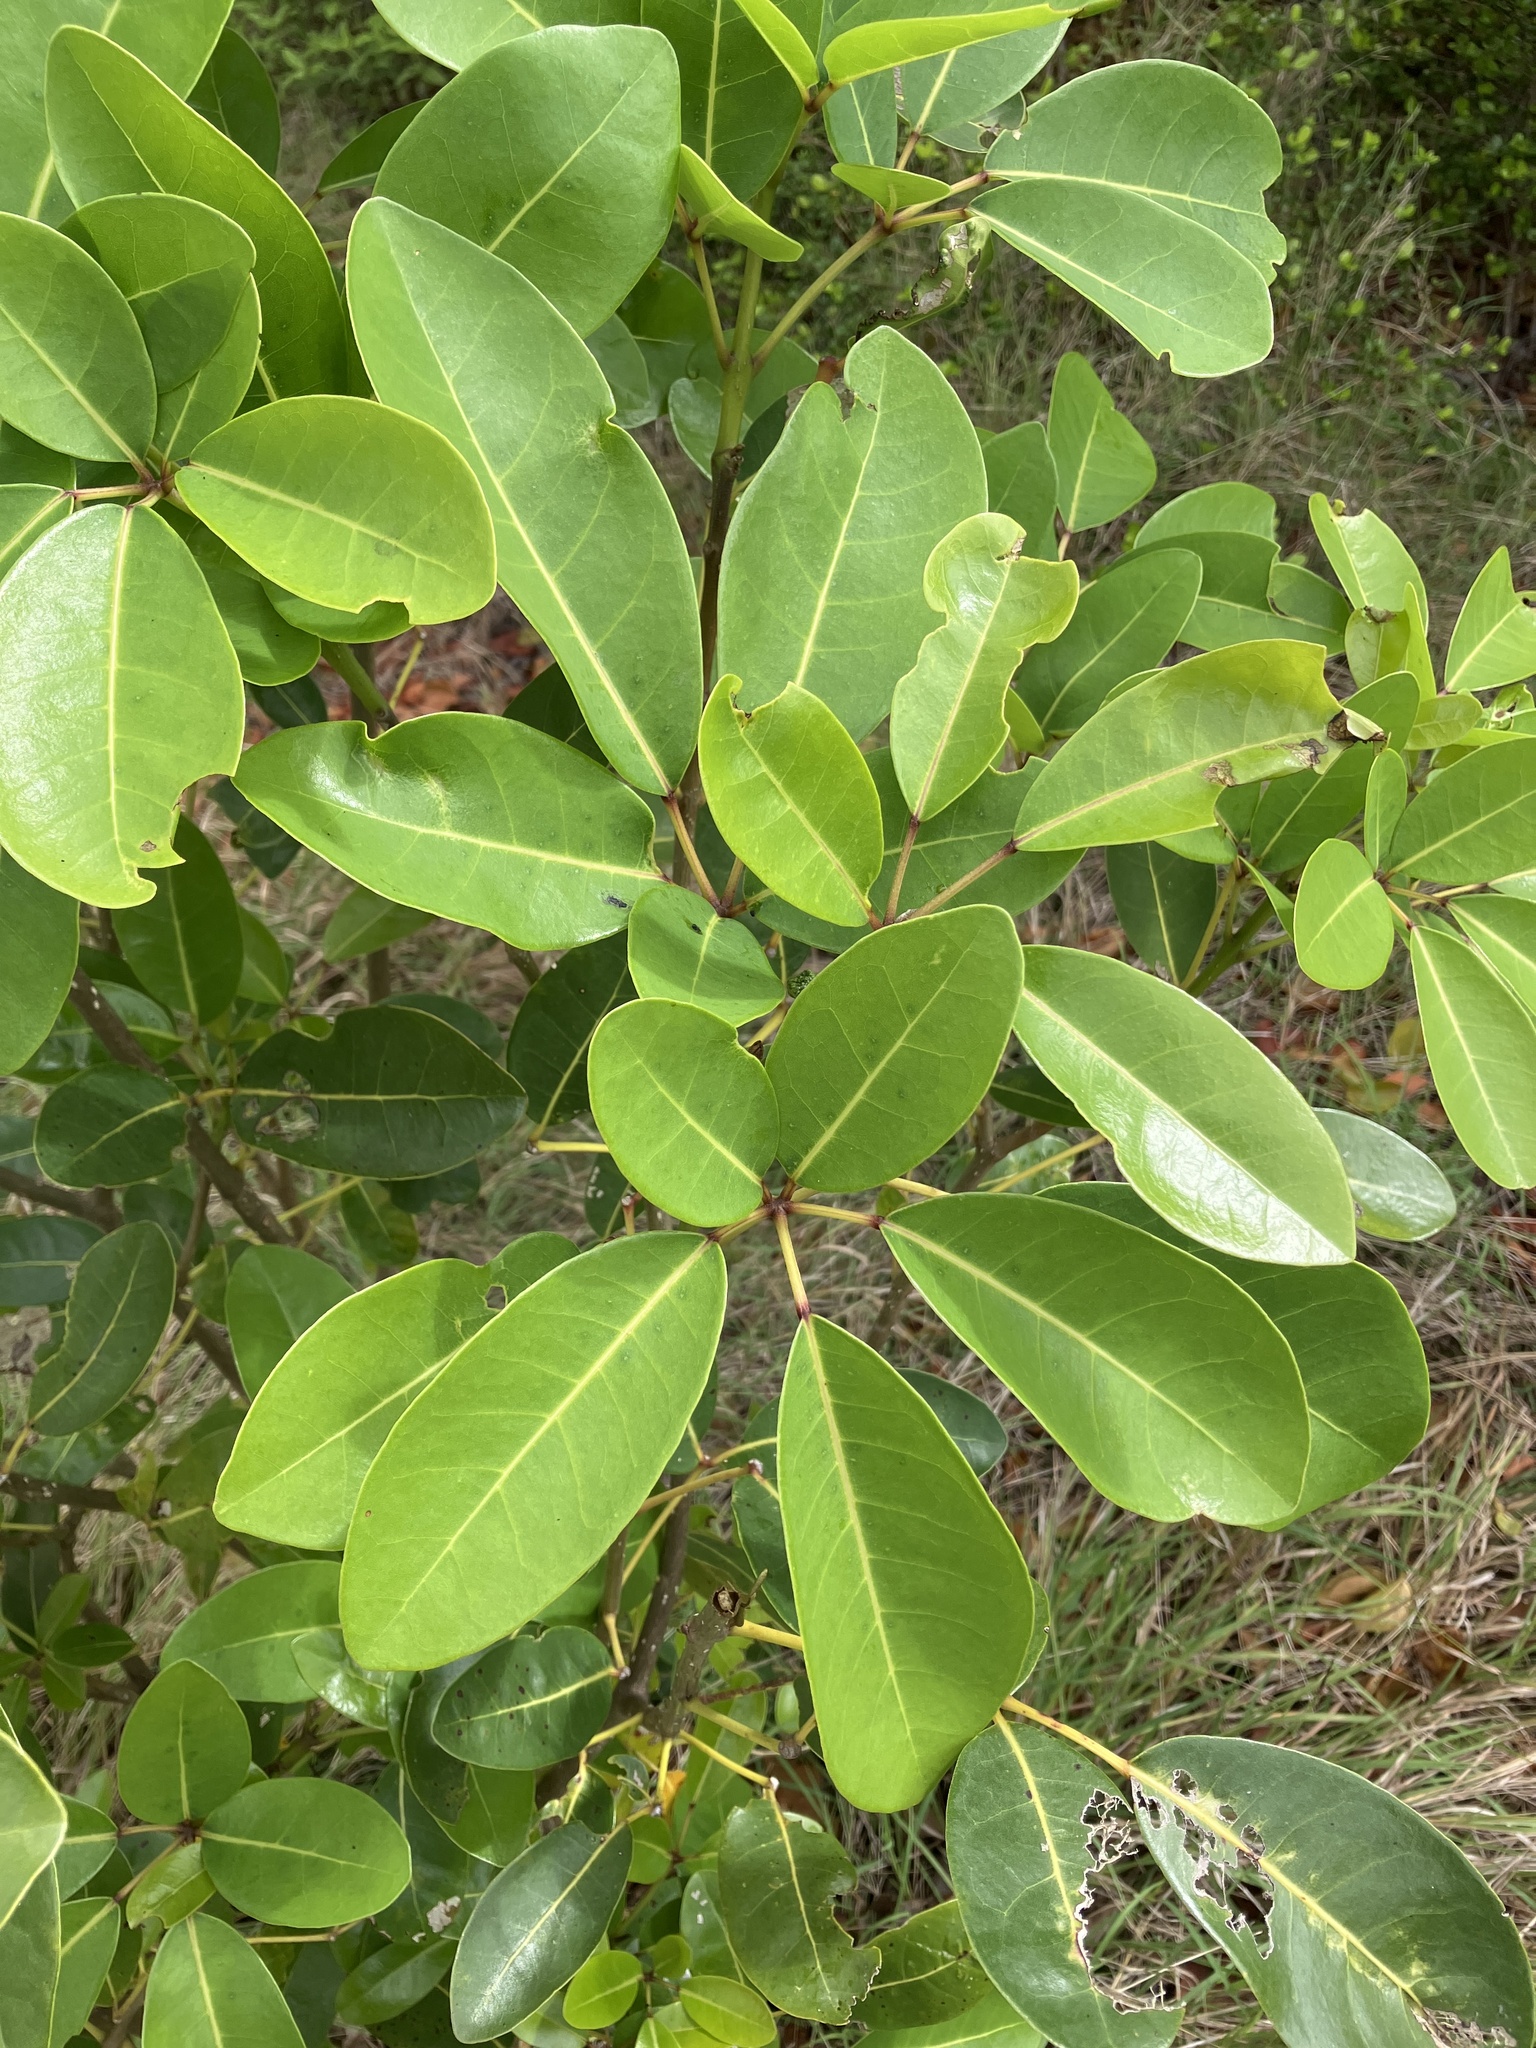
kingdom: Plantae
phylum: Tracheophyta
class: Magnoliopsida
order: Lamiales
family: Bignoniaceae
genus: Tabebuia
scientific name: Tabebuia heterophylla
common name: White cedar
